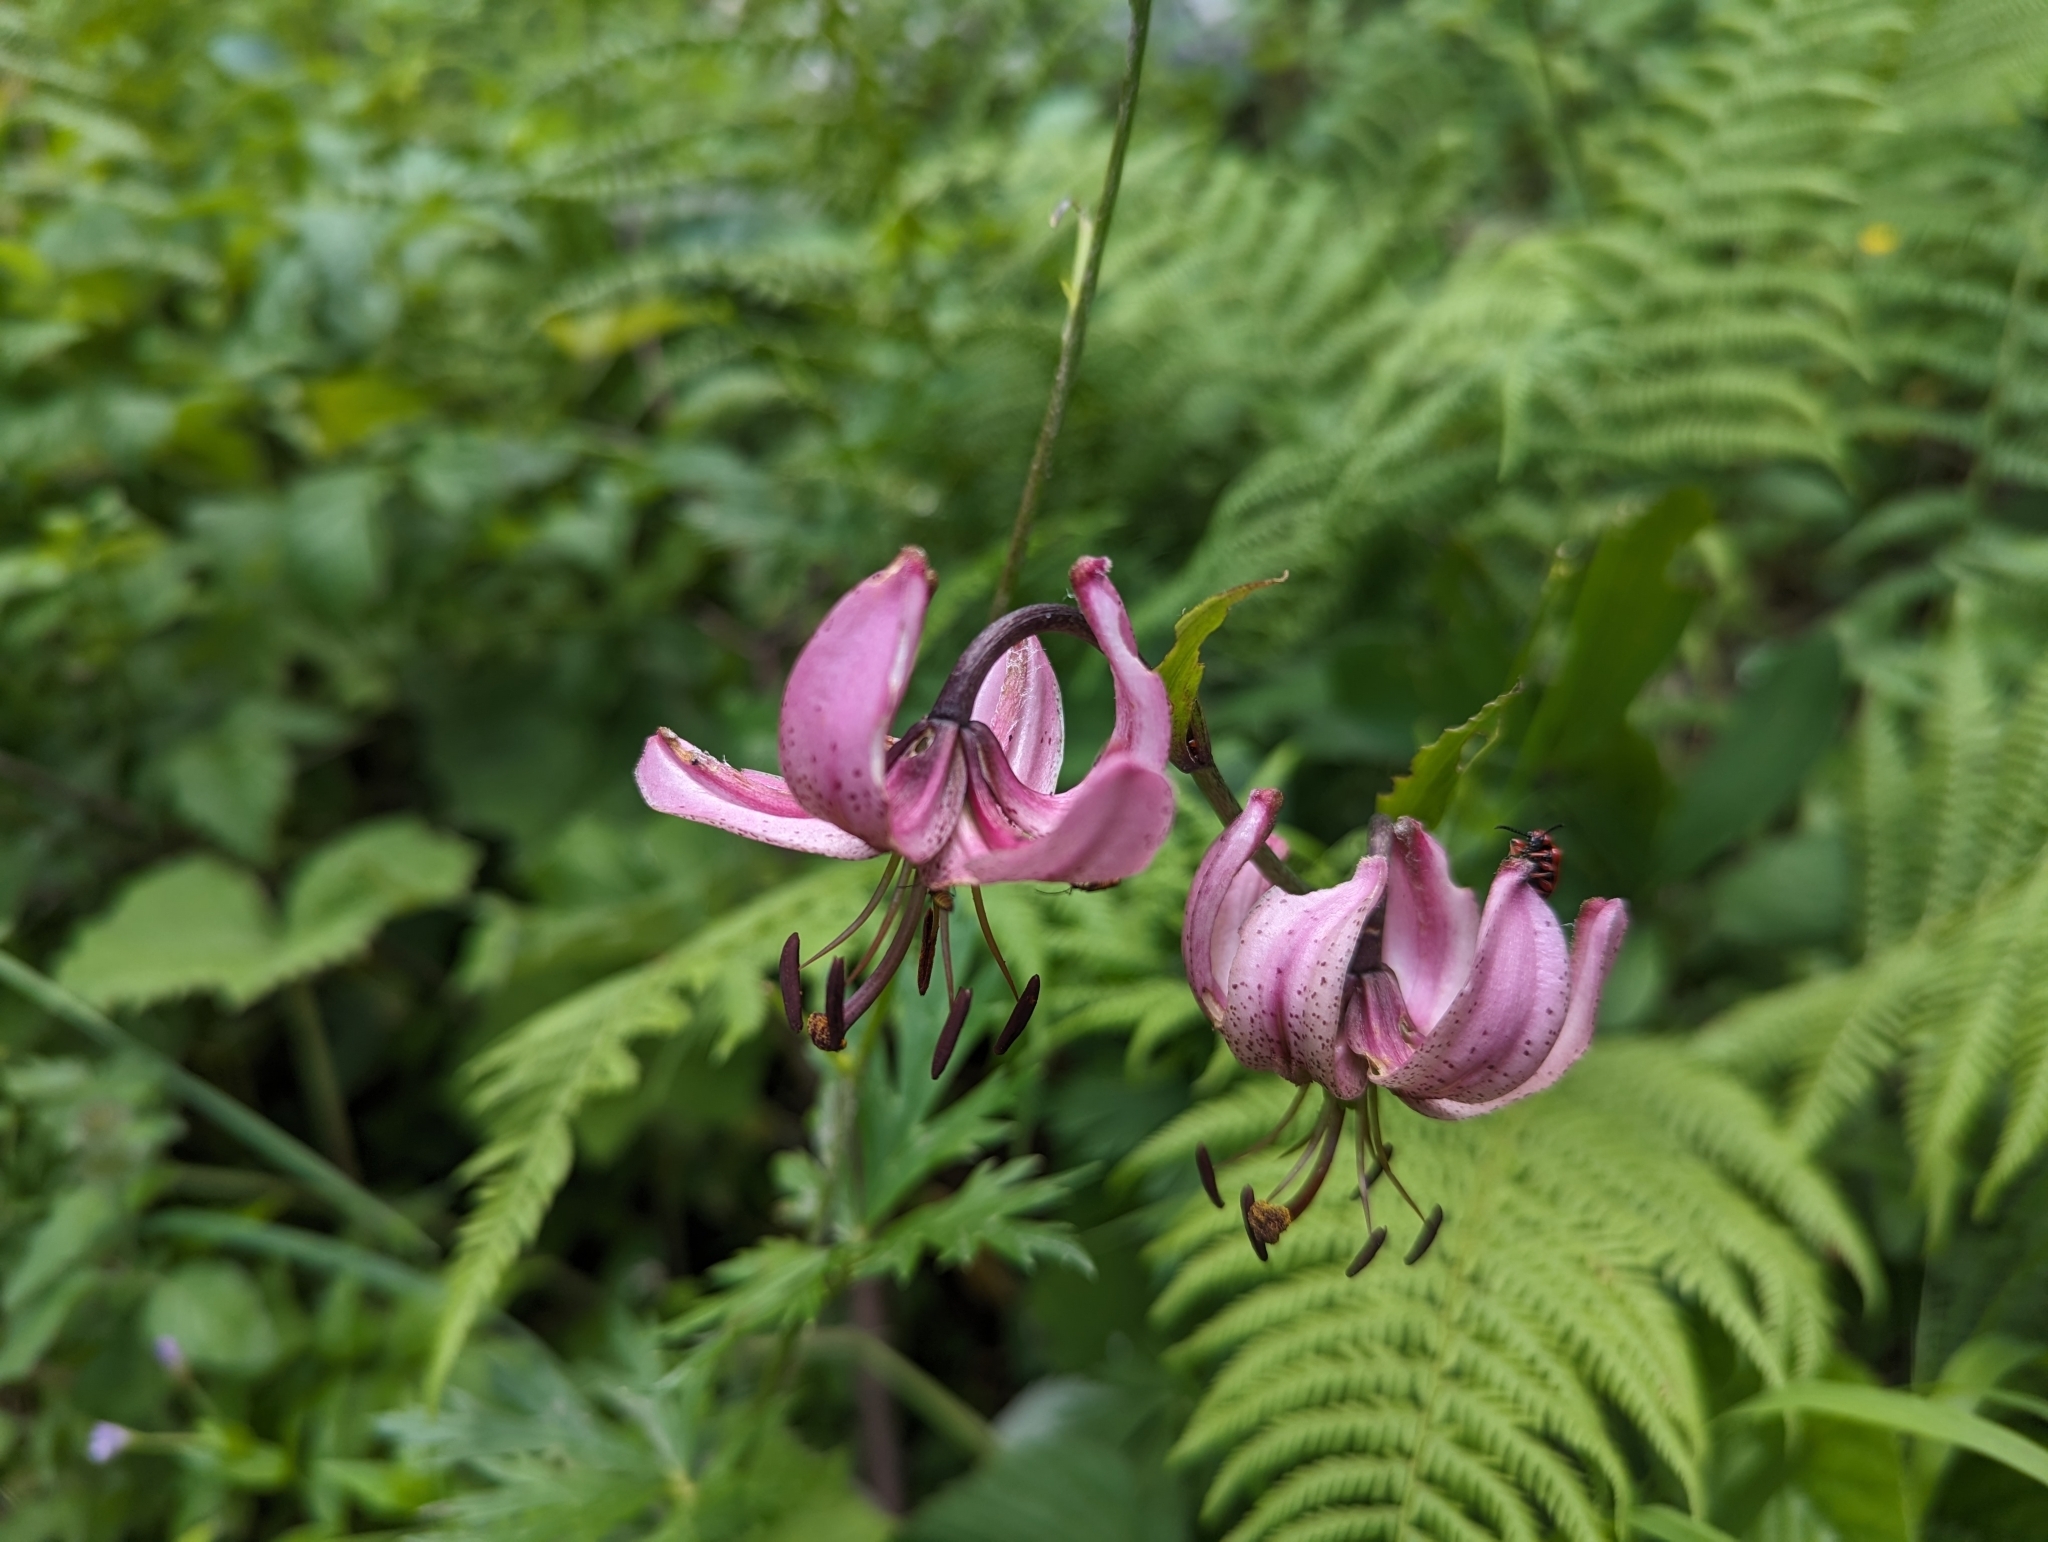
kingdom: Plantae
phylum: Tracheophyta
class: Liliopsida
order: Liliales
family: Liliaceae
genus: Lilium
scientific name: Lilium martagon
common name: Martagon lily
